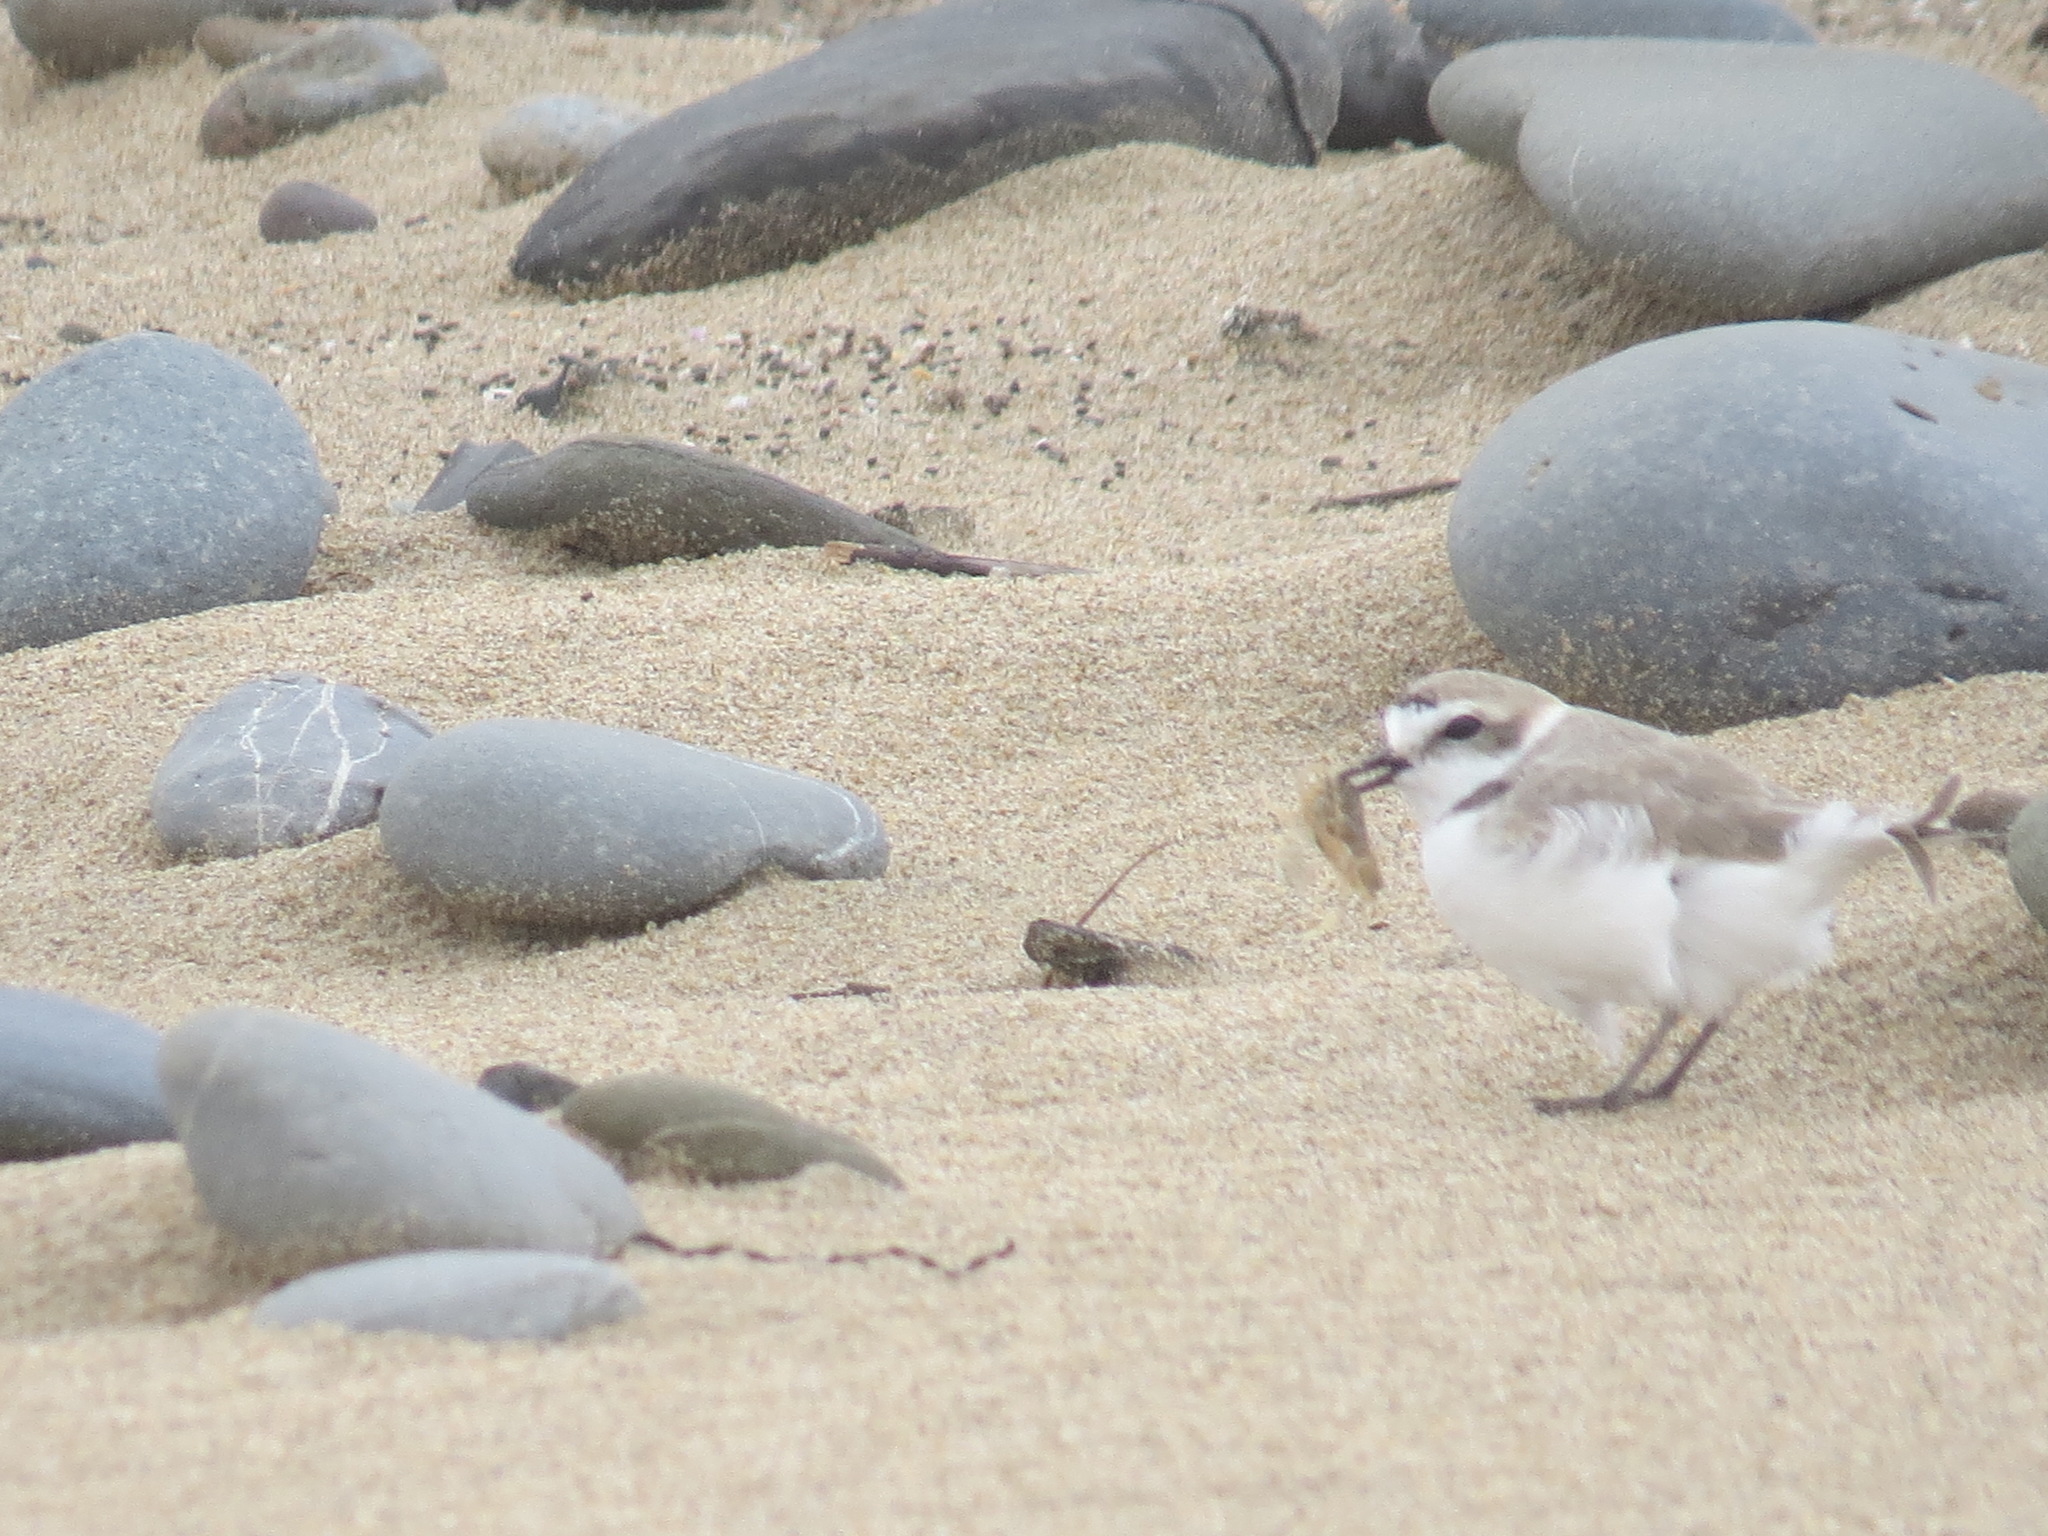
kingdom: Animalia
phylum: Chordata
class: Aves
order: Charadriiformes
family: Charadriidae
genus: Anarhynchus
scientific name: Anarhynchus
